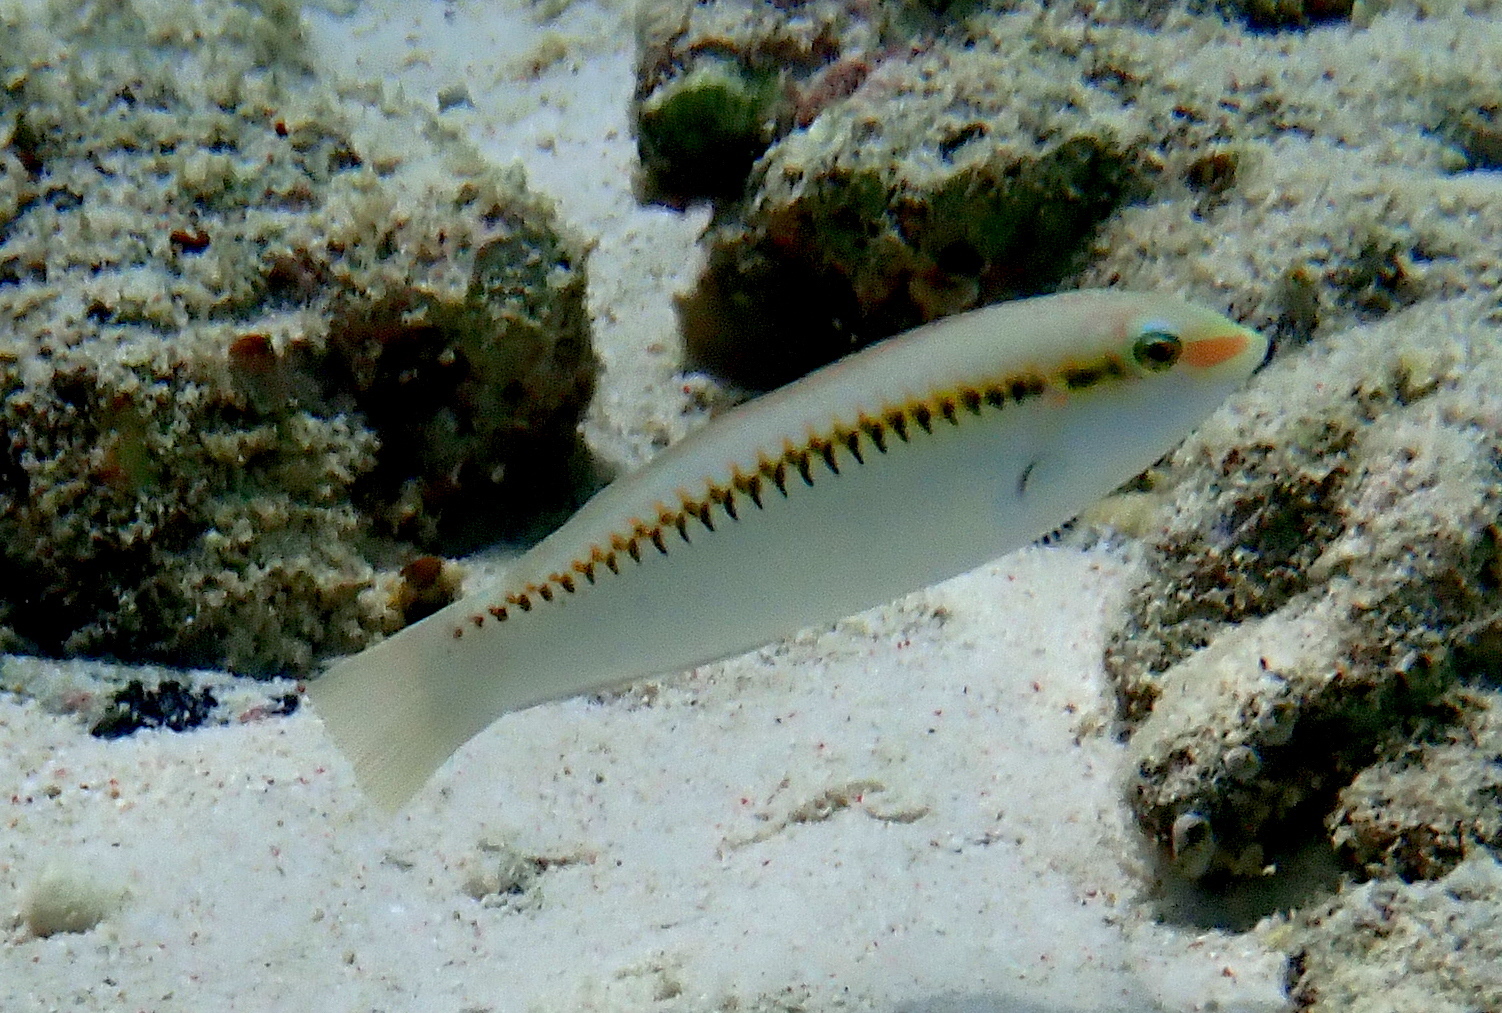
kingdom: Animalia
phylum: Chordata
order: Perciformes
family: Labridae
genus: Halichoeres
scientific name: Halichoeres scapularis
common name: Brownbanded wrasse
